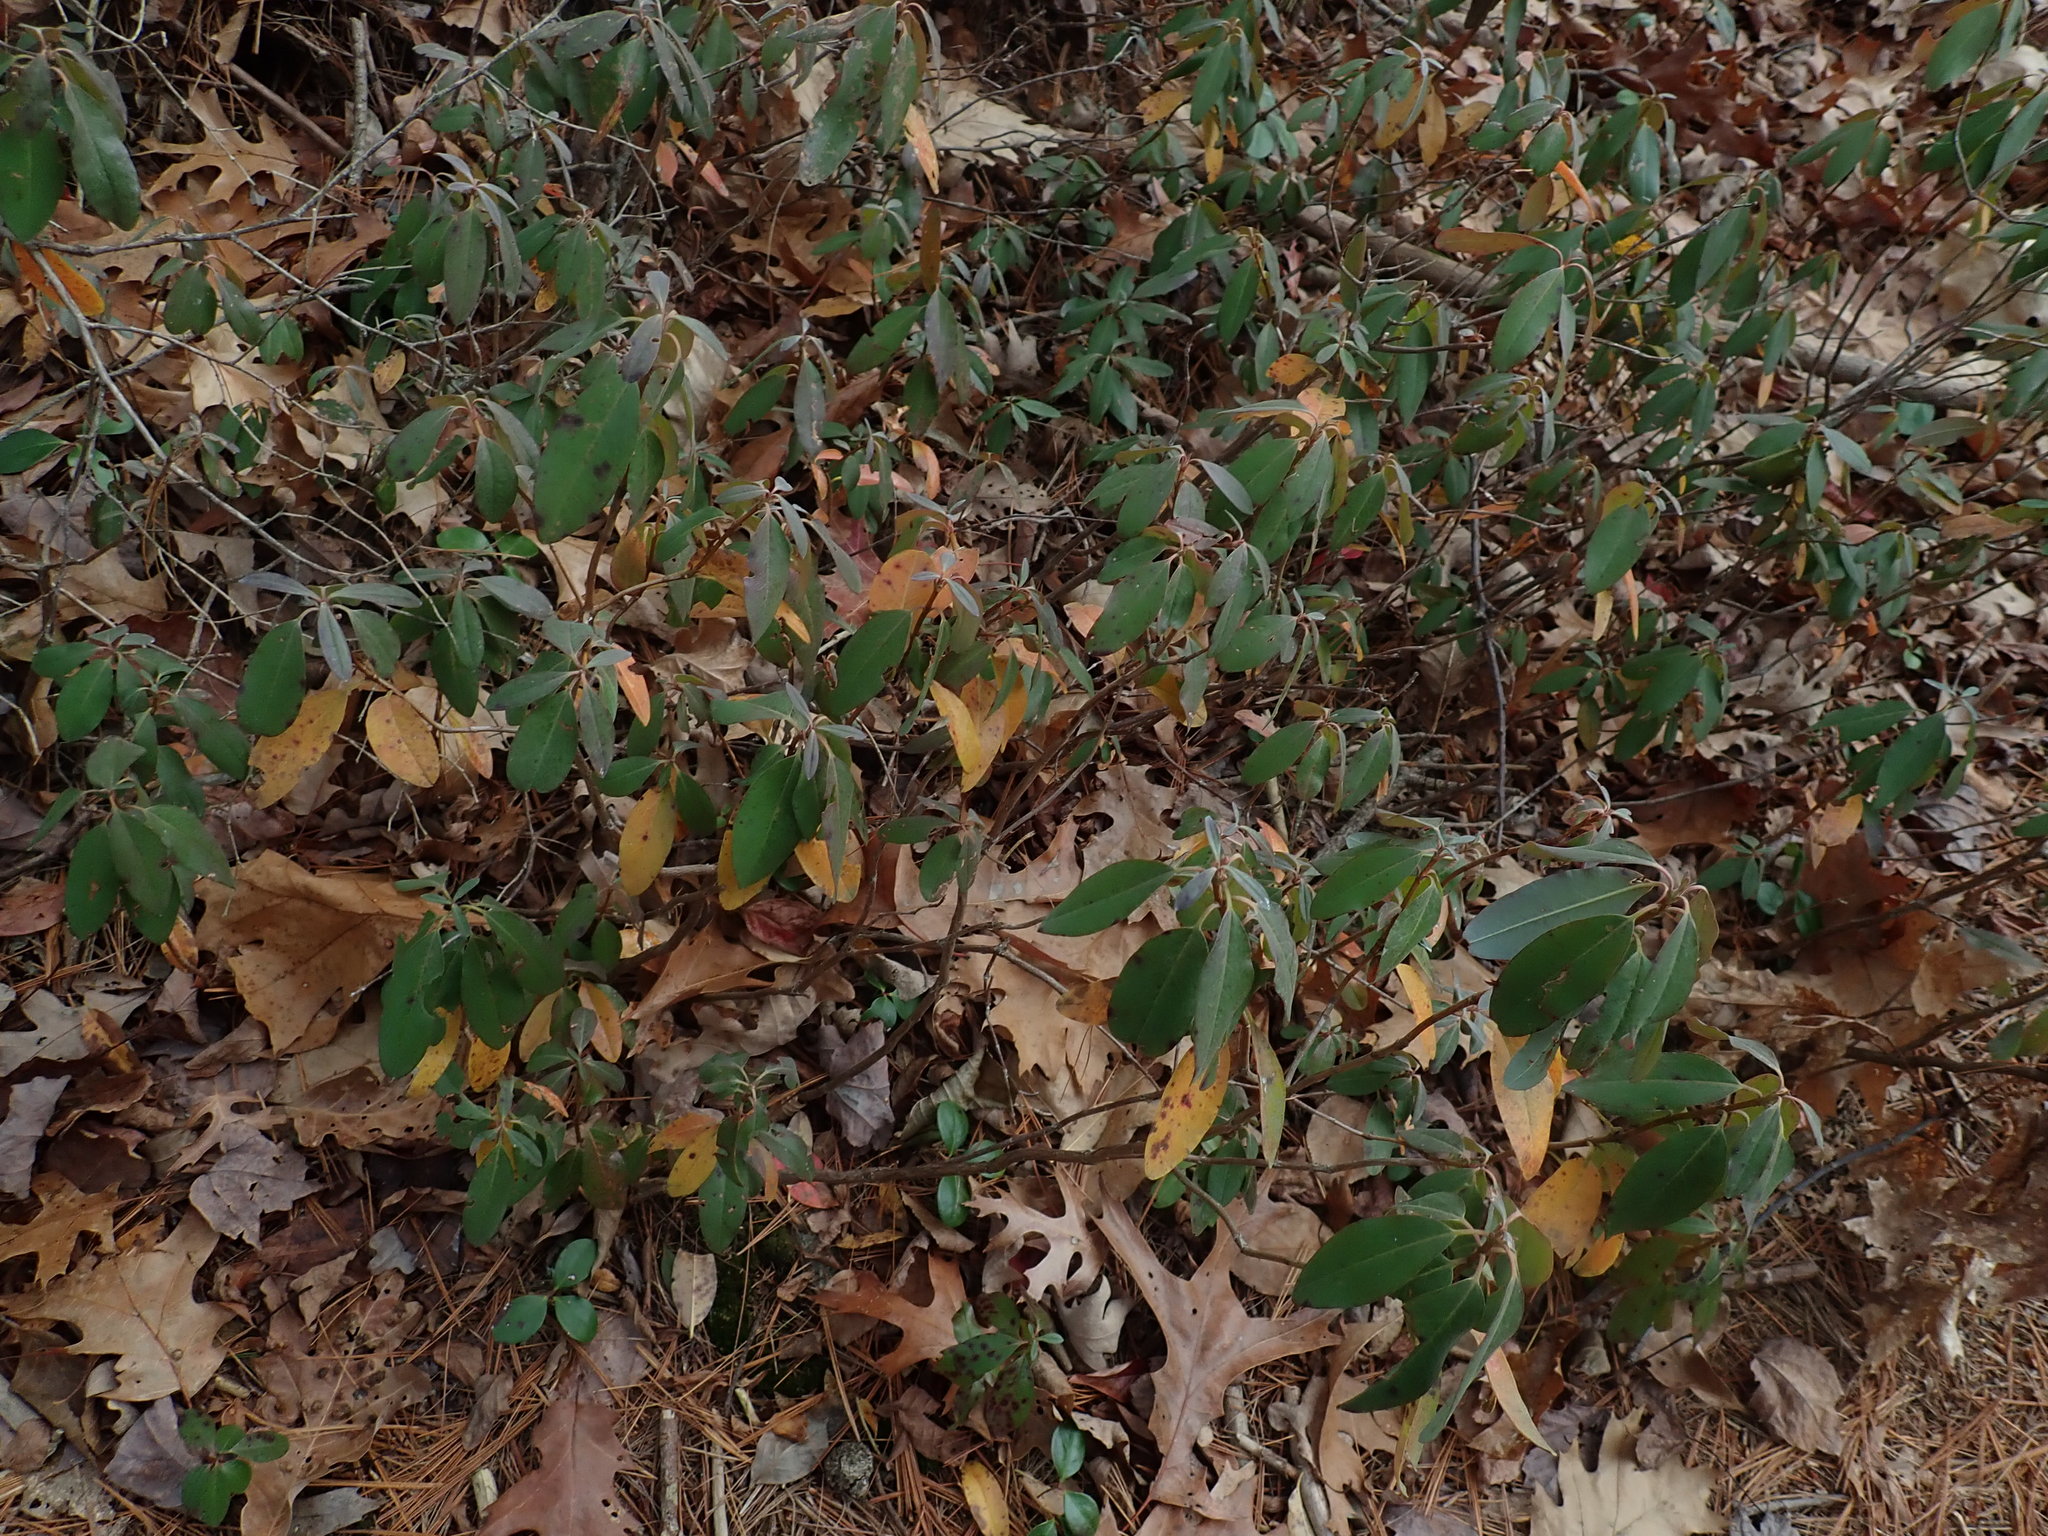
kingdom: Plantae
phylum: Tracheophyta
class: Magnoliopsida
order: Ericales
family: Ericaceae
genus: Kalmia
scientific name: Kalmia angustifolia
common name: Sheep-laurel
